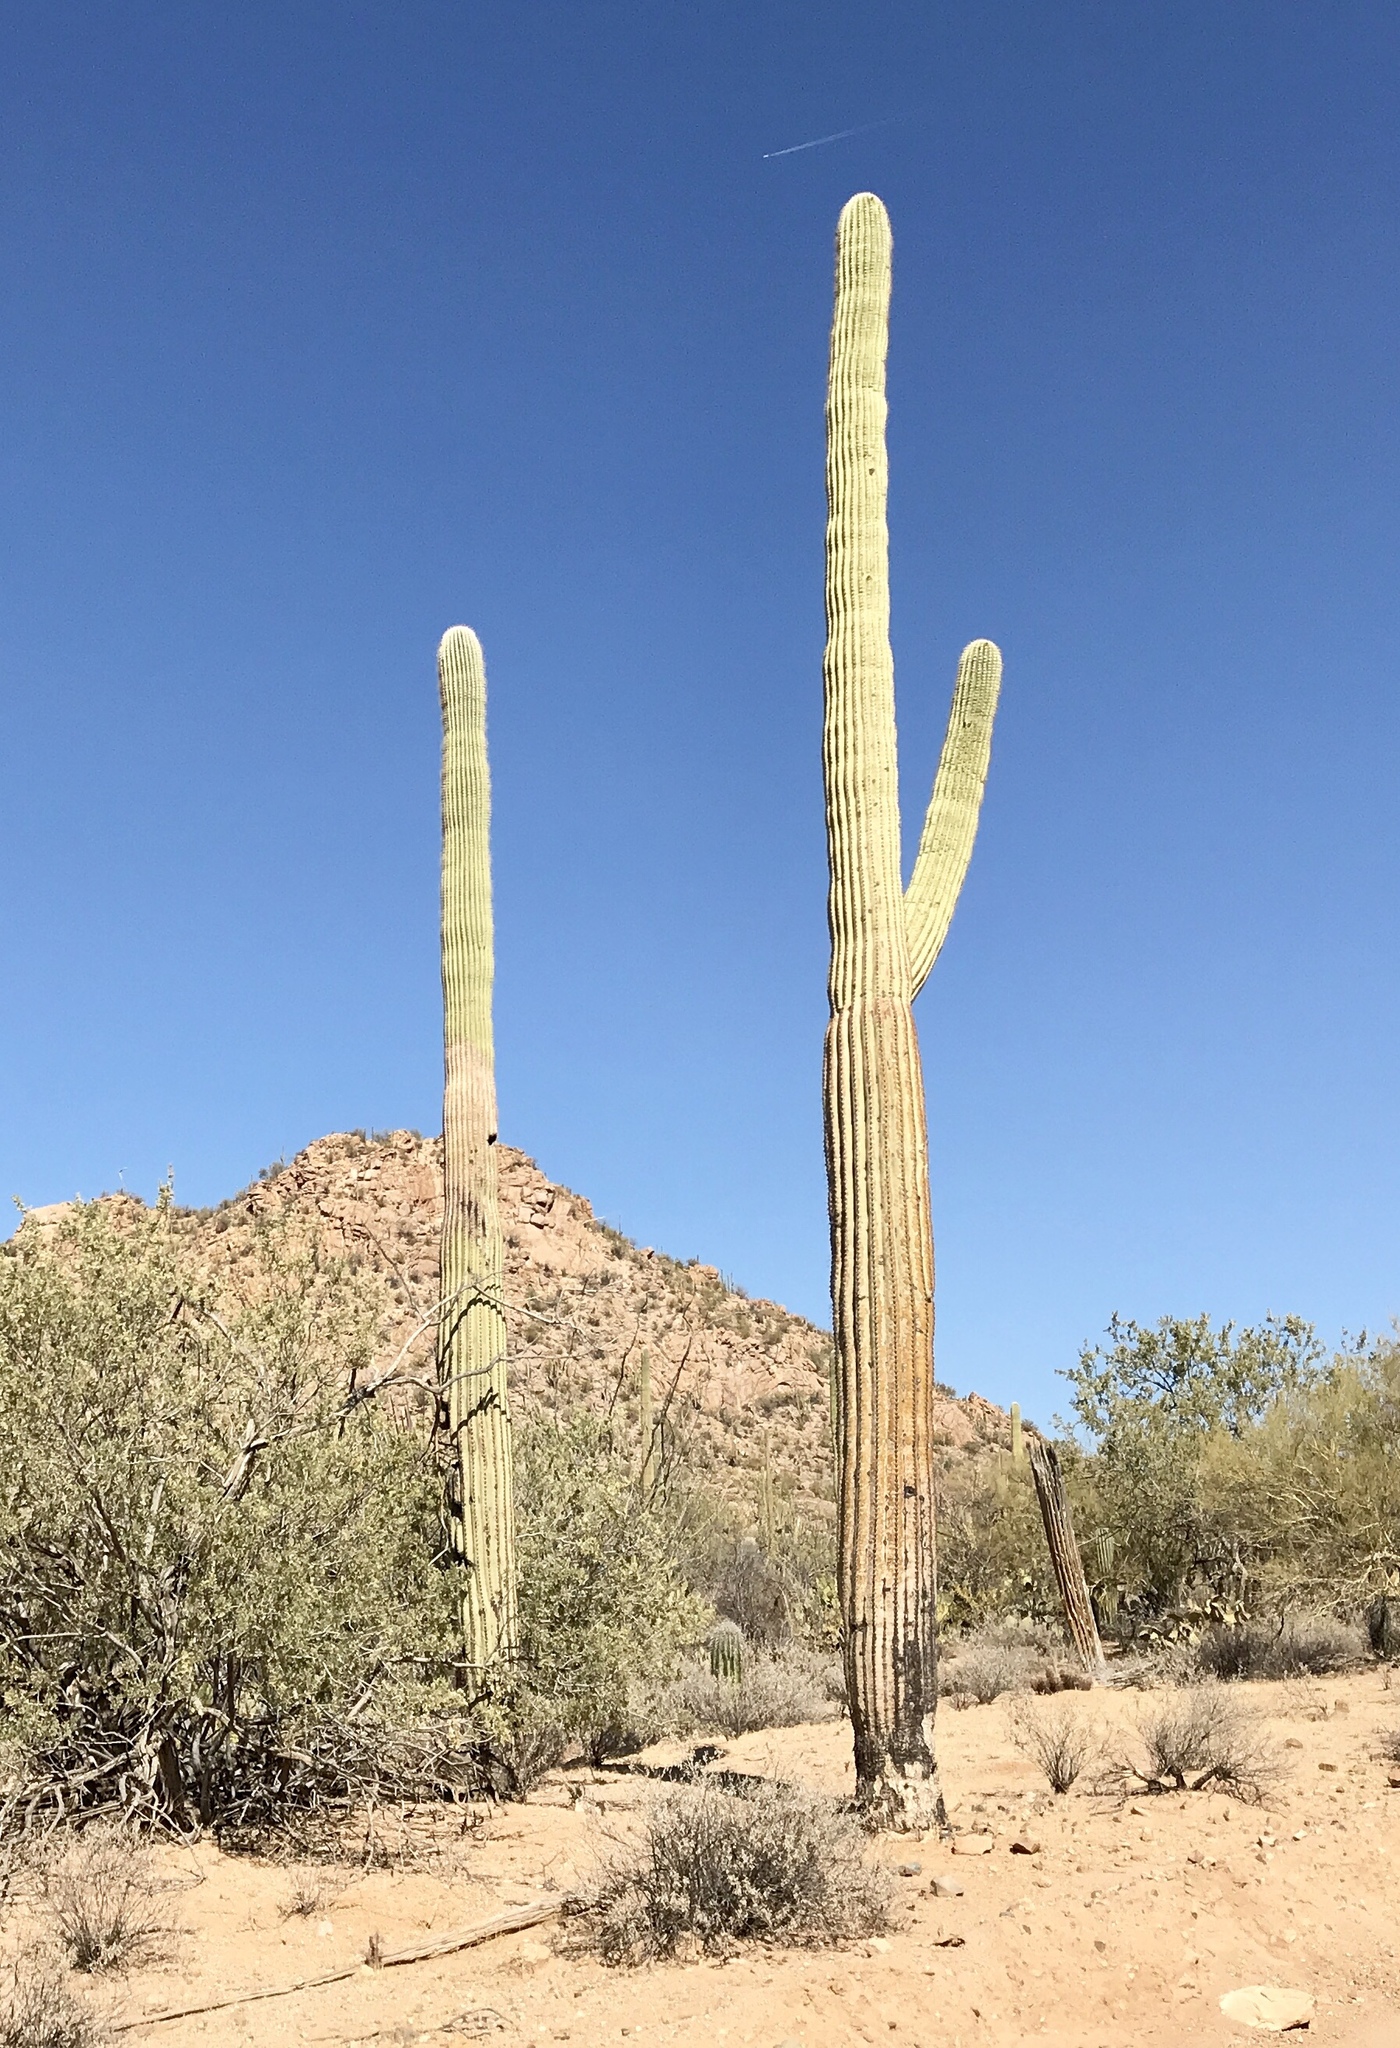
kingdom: Plantae
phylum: Tracheophyta
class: Magnoliopsida
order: Caryophyllales
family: Cactaceae
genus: Carnegiea
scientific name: Carnegiea gigantea
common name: Saguaro
